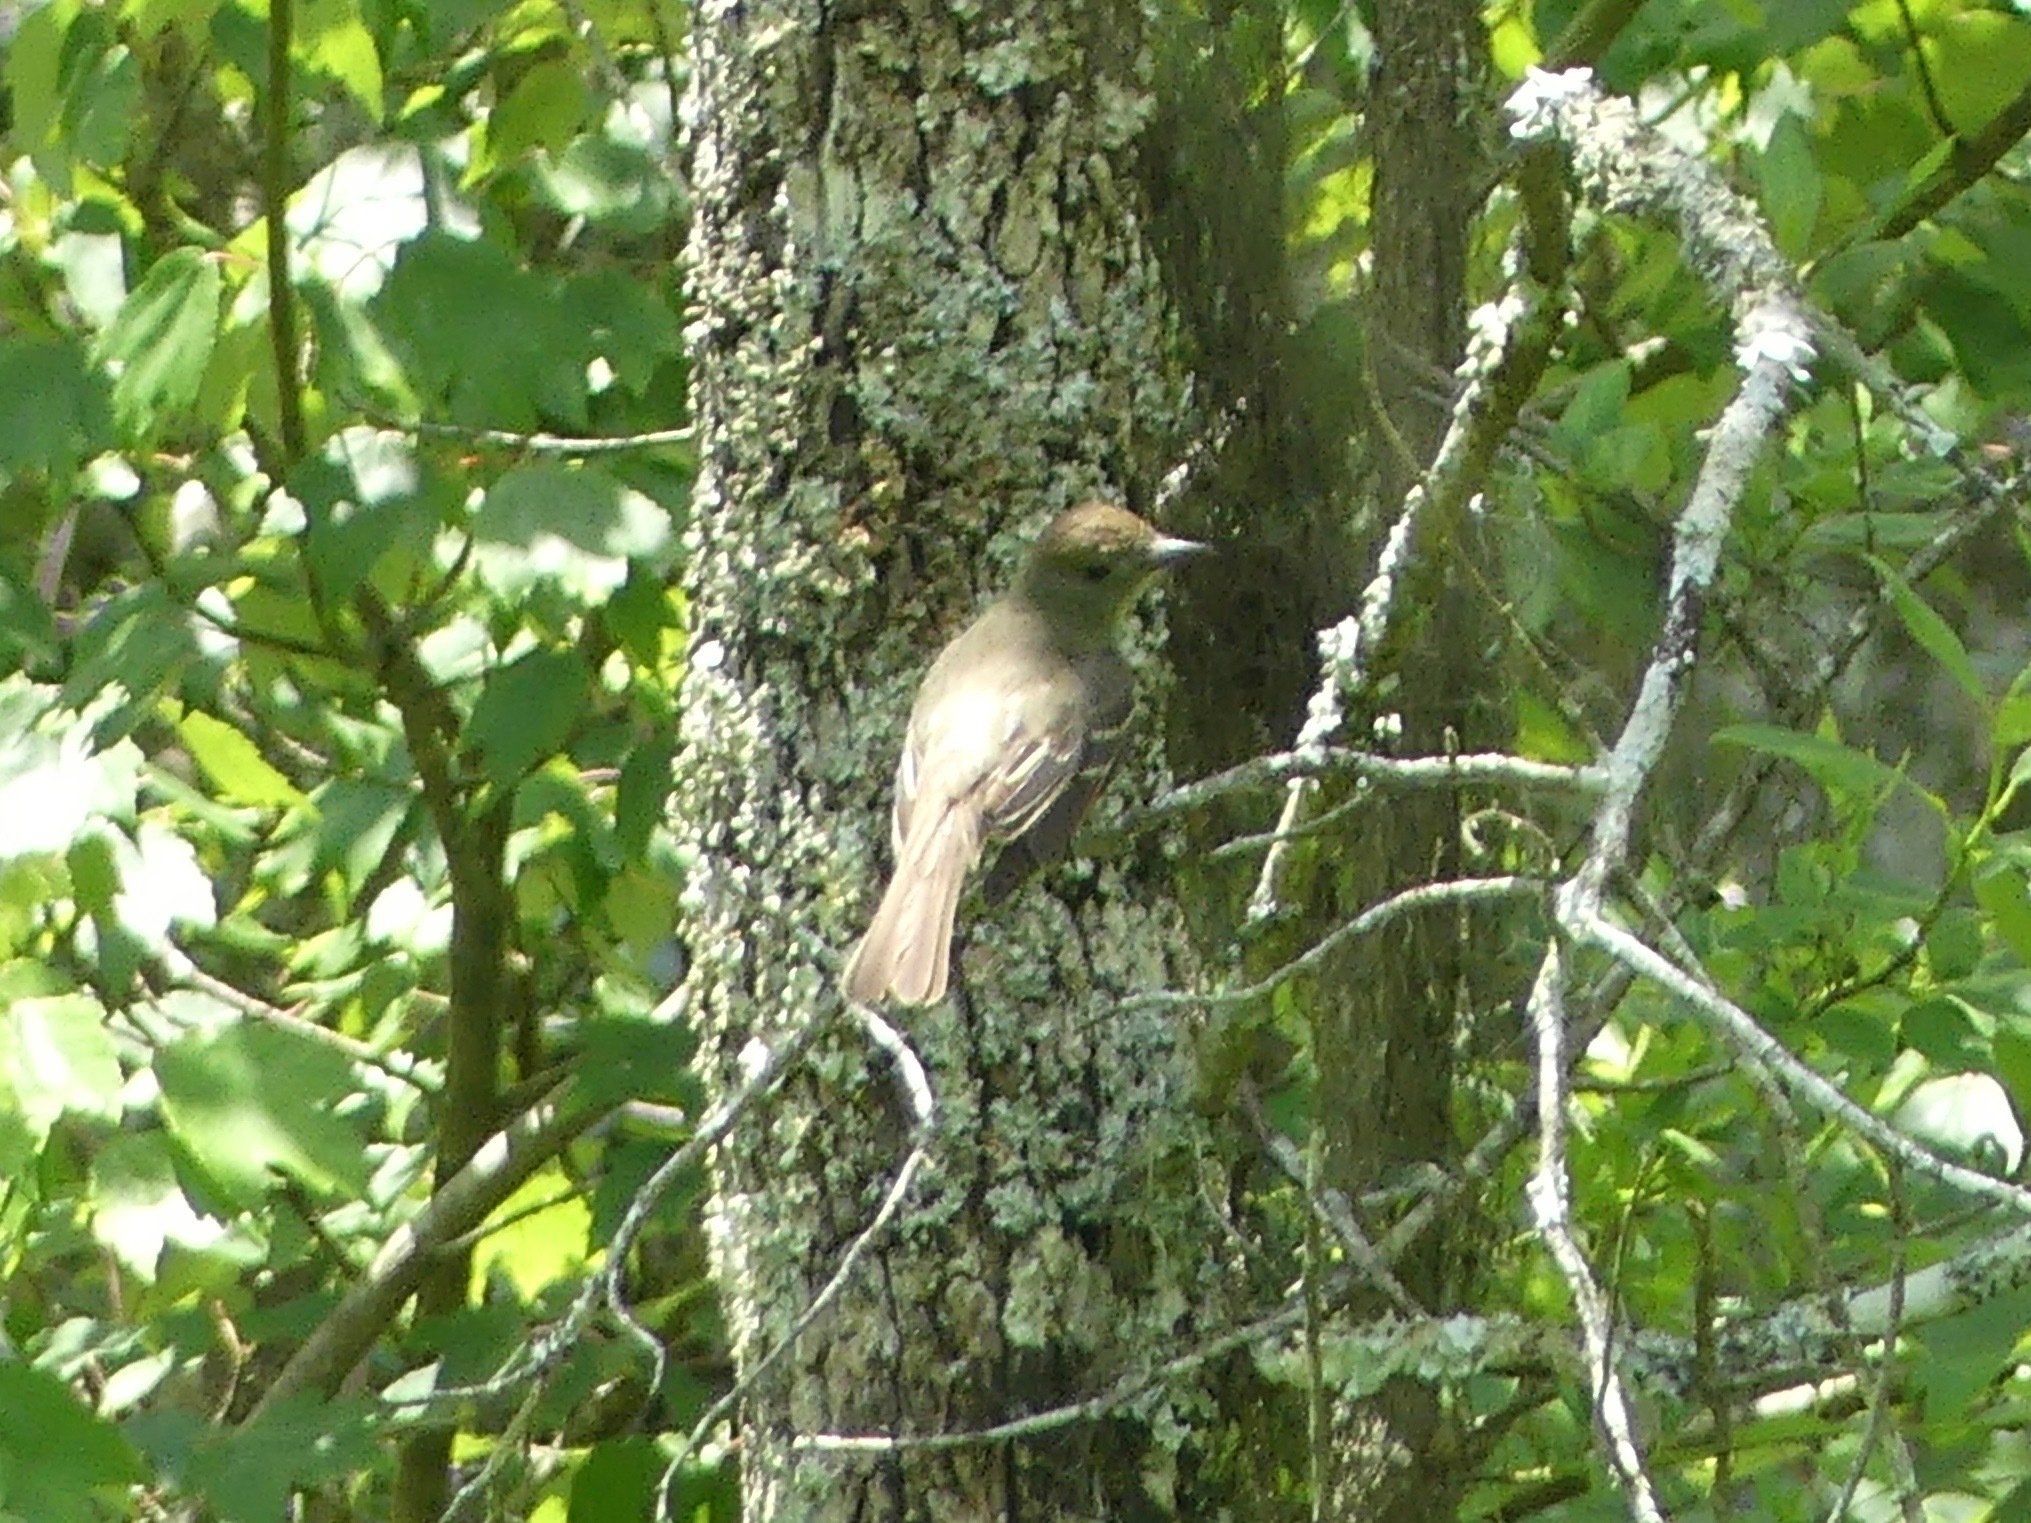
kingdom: Animalia
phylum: Chordata
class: Aves
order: Passeriformes
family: Tyrannidae
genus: Myiarchus
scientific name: Myiarchus crinitus
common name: Great crested flycatcher
